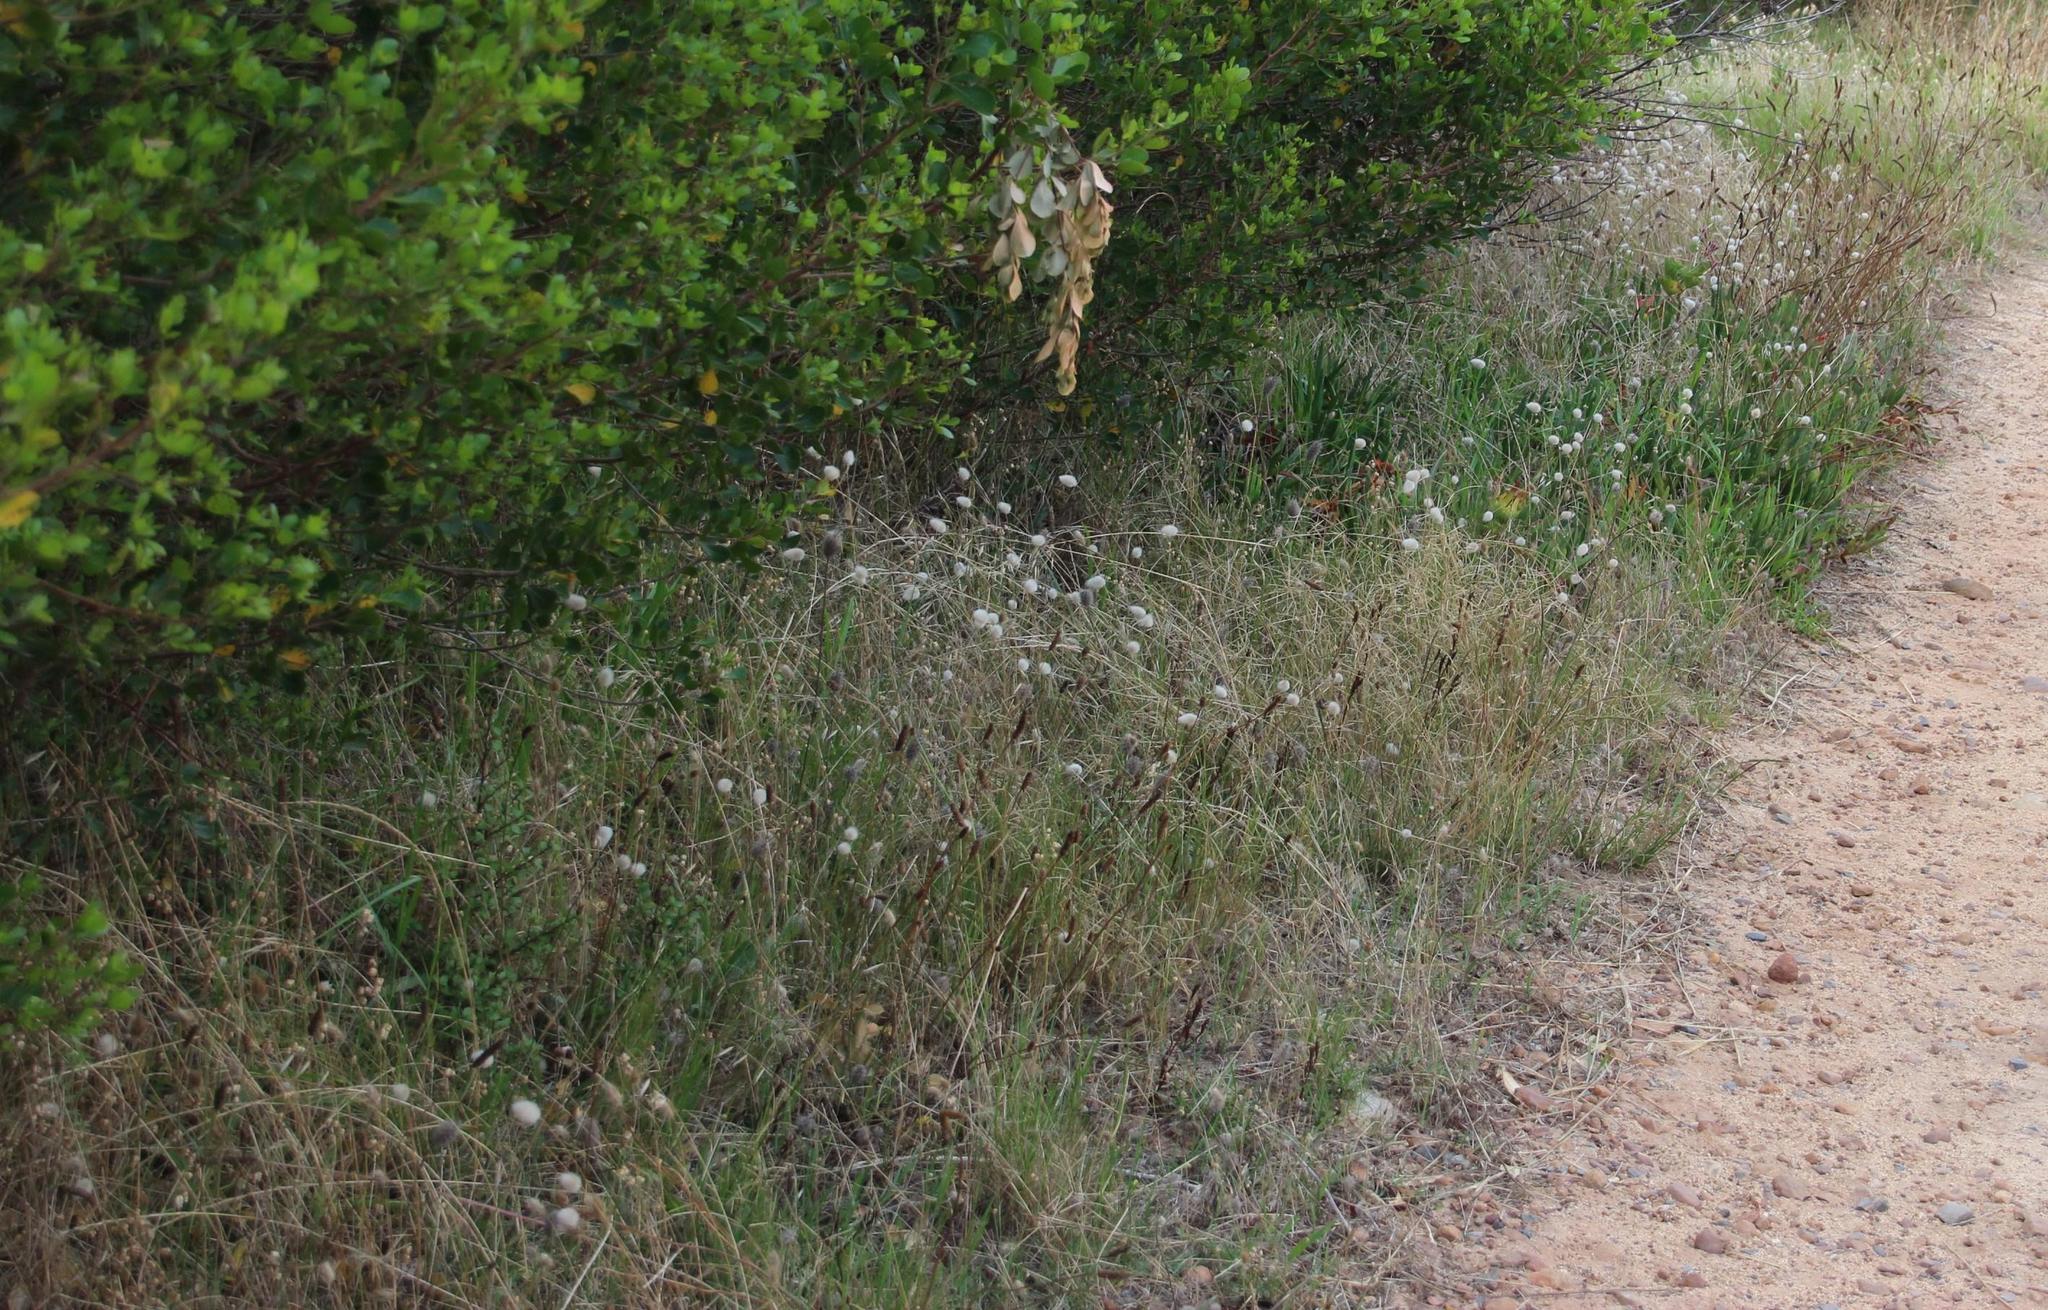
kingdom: Plantae
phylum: Tracheophyta
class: Liliopsida
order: Poales
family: Poaceae
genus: Lagurus
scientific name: Lagurus ovatus
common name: Hare's-tail
